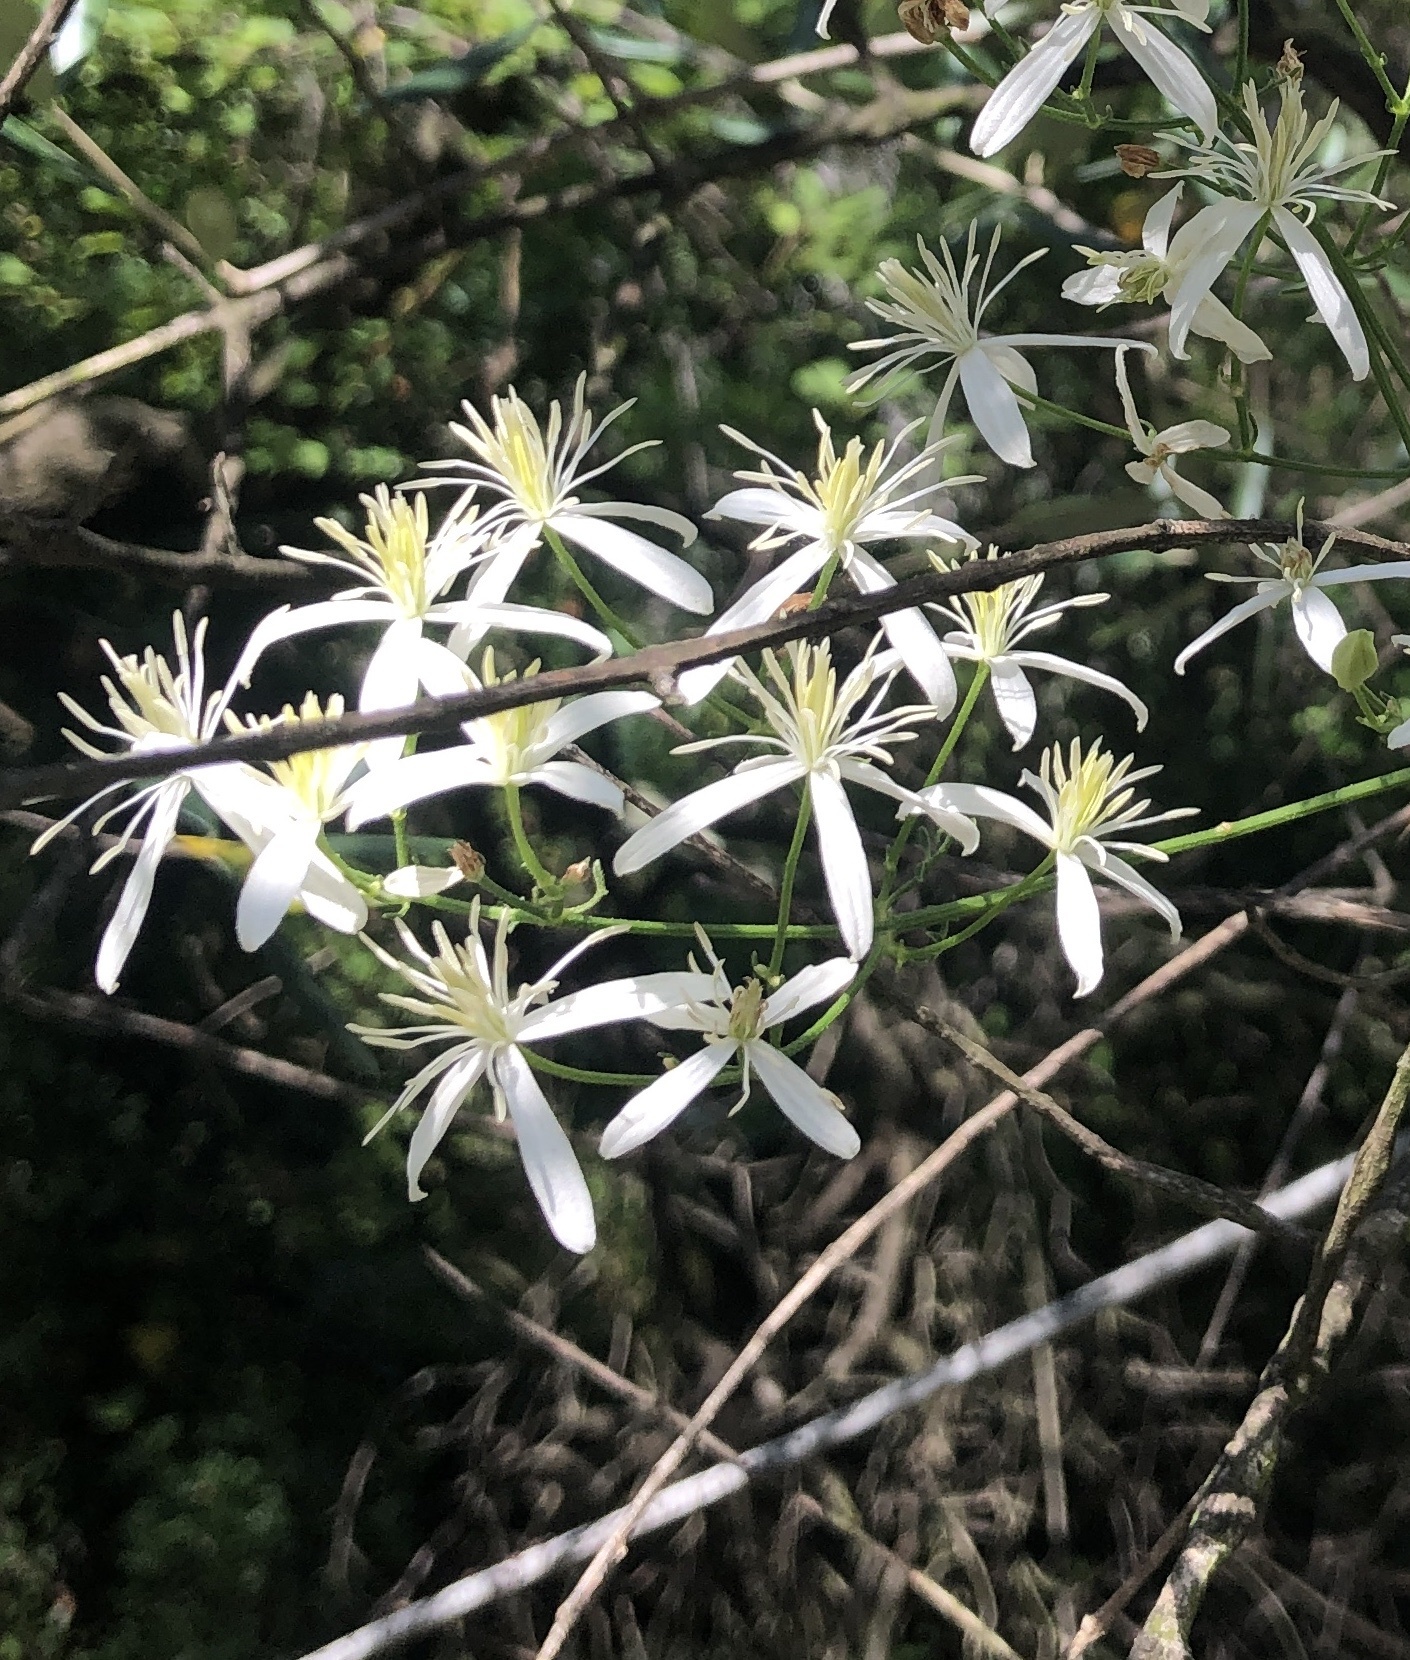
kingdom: Plantae
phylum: Tracheophyta
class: Magnoliopsida
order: Ranunculales
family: Ranunculaceae
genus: Clematis
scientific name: Clematis flammula
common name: Virgin's-bower
